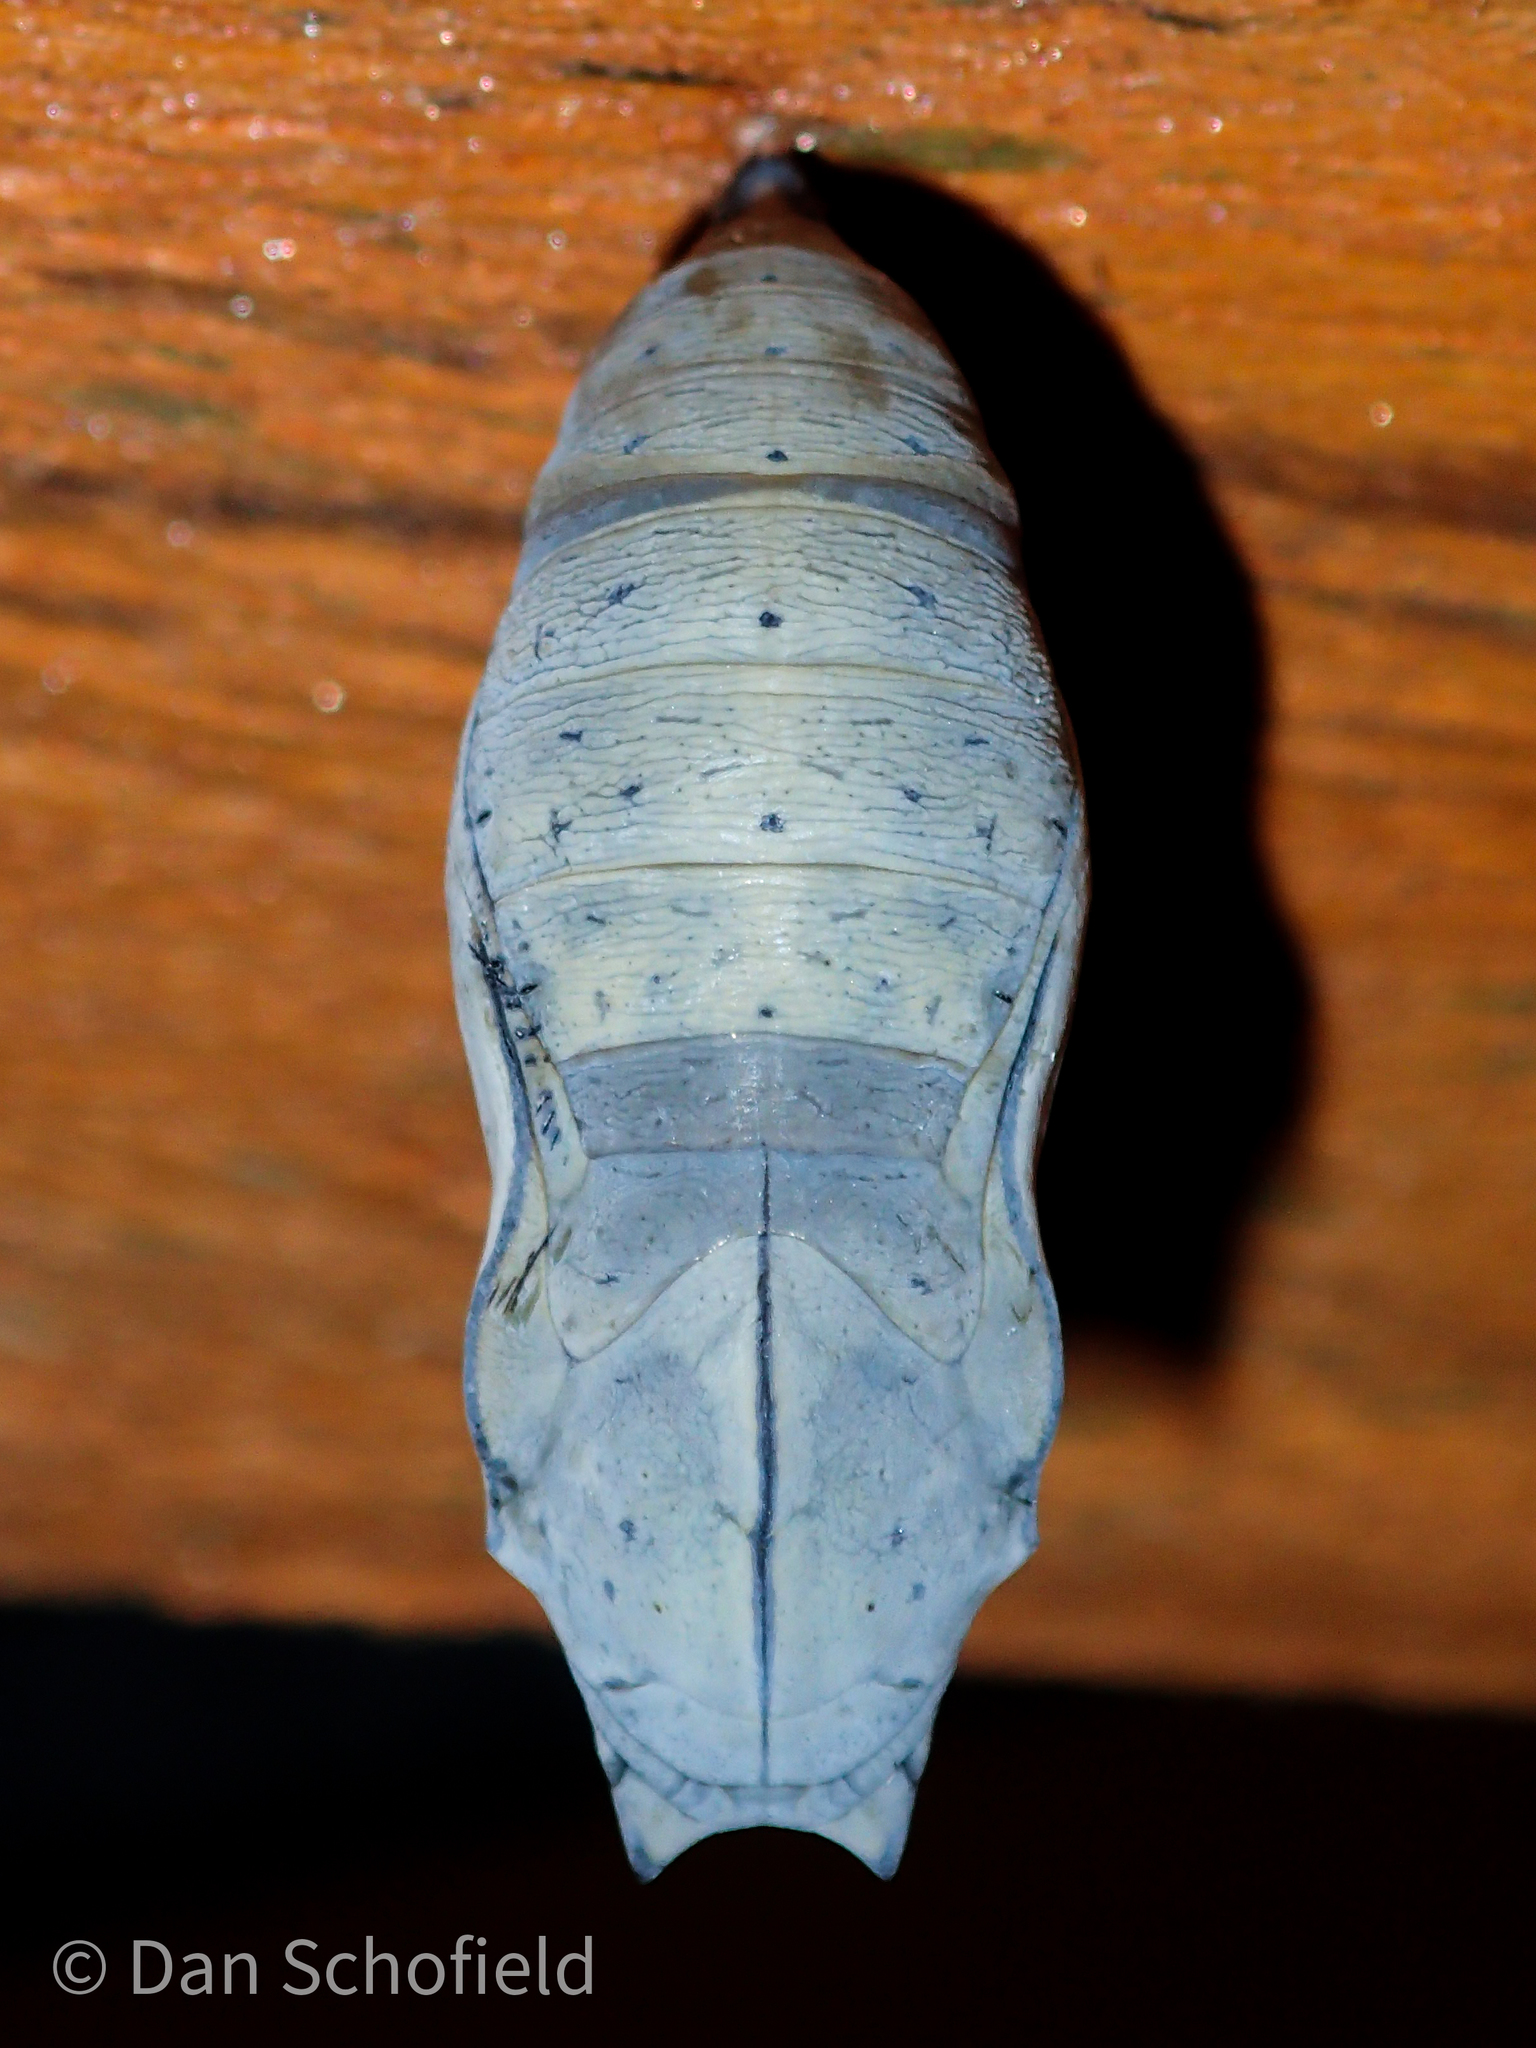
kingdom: Animalia
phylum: Arthropoda
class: Insecta
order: Lepidoptera
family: Nymphalidae
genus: Doleschallia
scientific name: Doleschallia bisaltide
